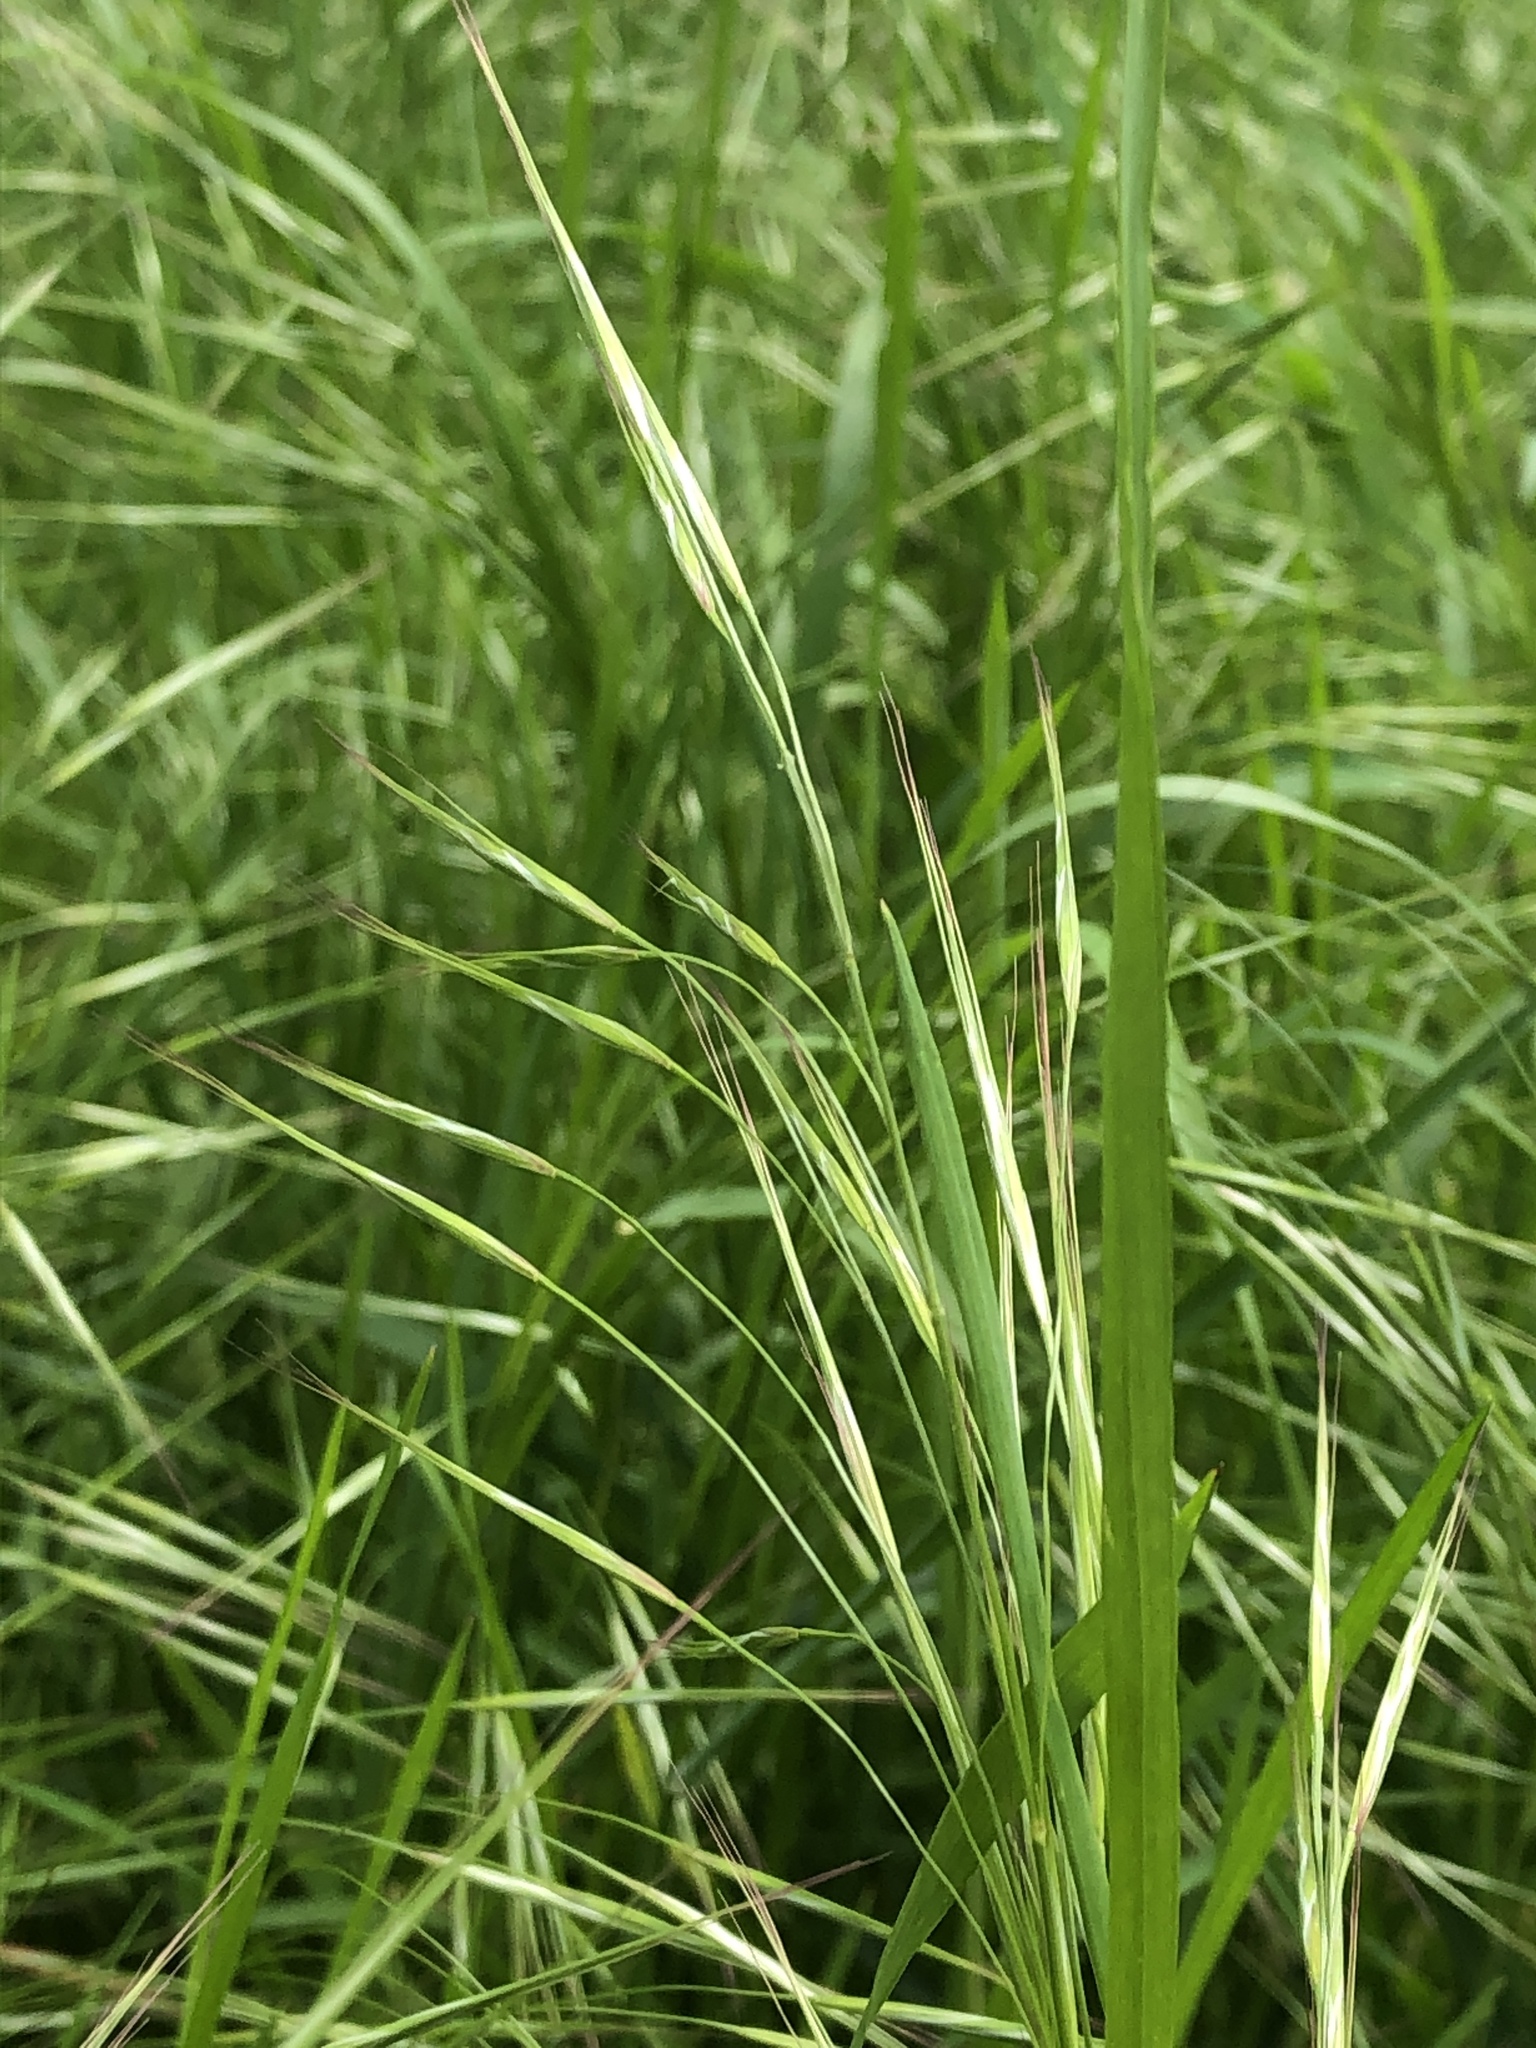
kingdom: Plantae
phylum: Tracheophyta
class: Liliopsida
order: Poales
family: Poaceae
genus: Bromus
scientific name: Bromus sterilis
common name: Poverty brome
